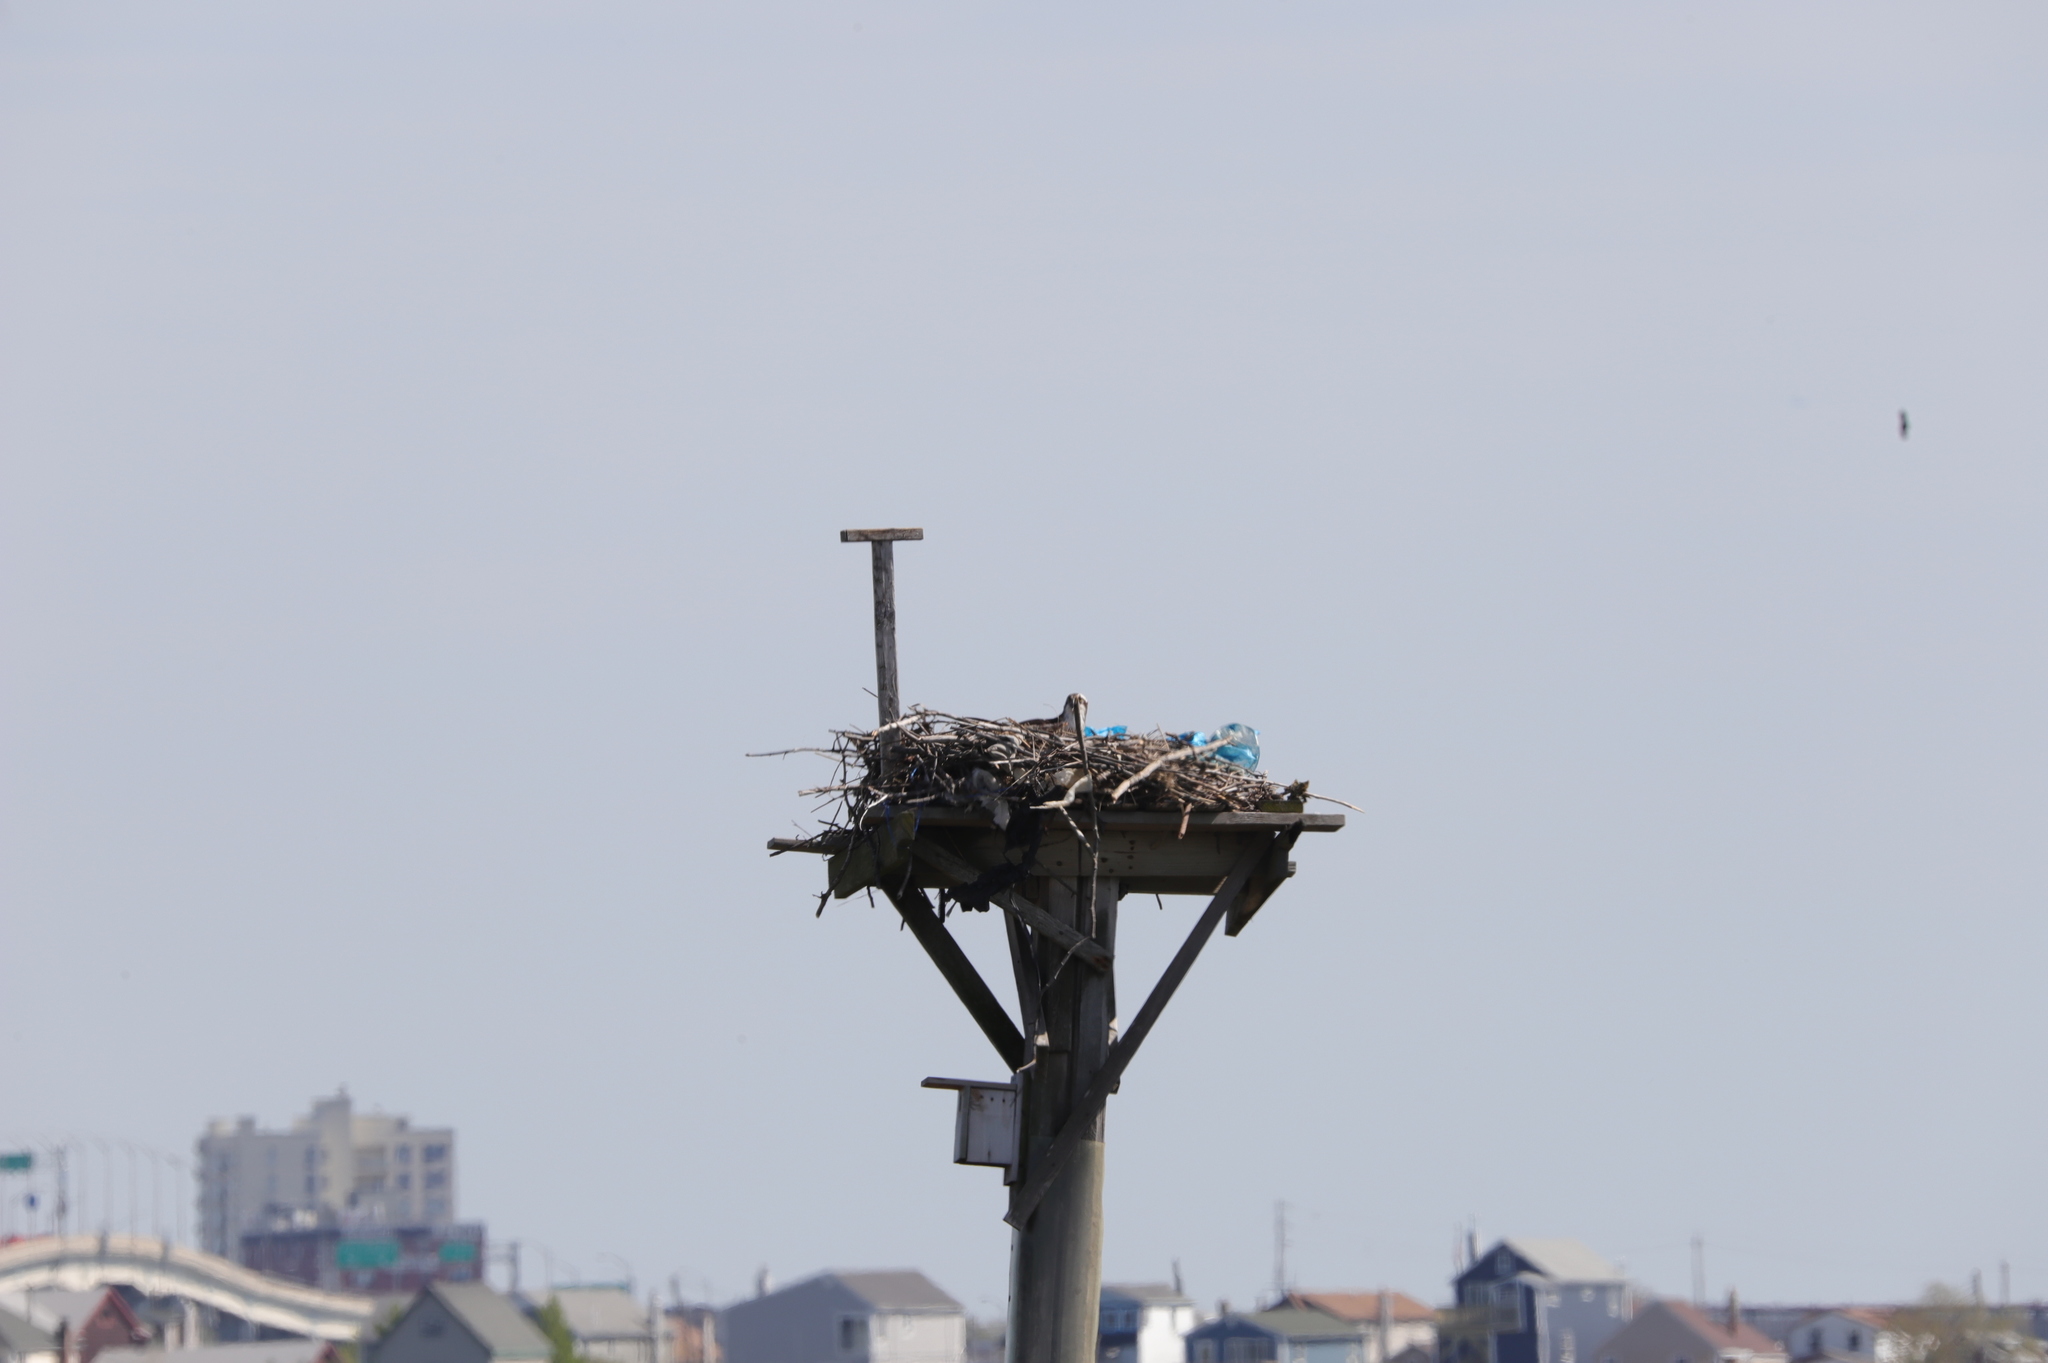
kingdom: Animalia
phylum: Chordata
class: Aves
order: Accipitriformes
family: Pandionidae
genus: Pandion
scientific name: Pandion haliaetus
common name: Osprey
